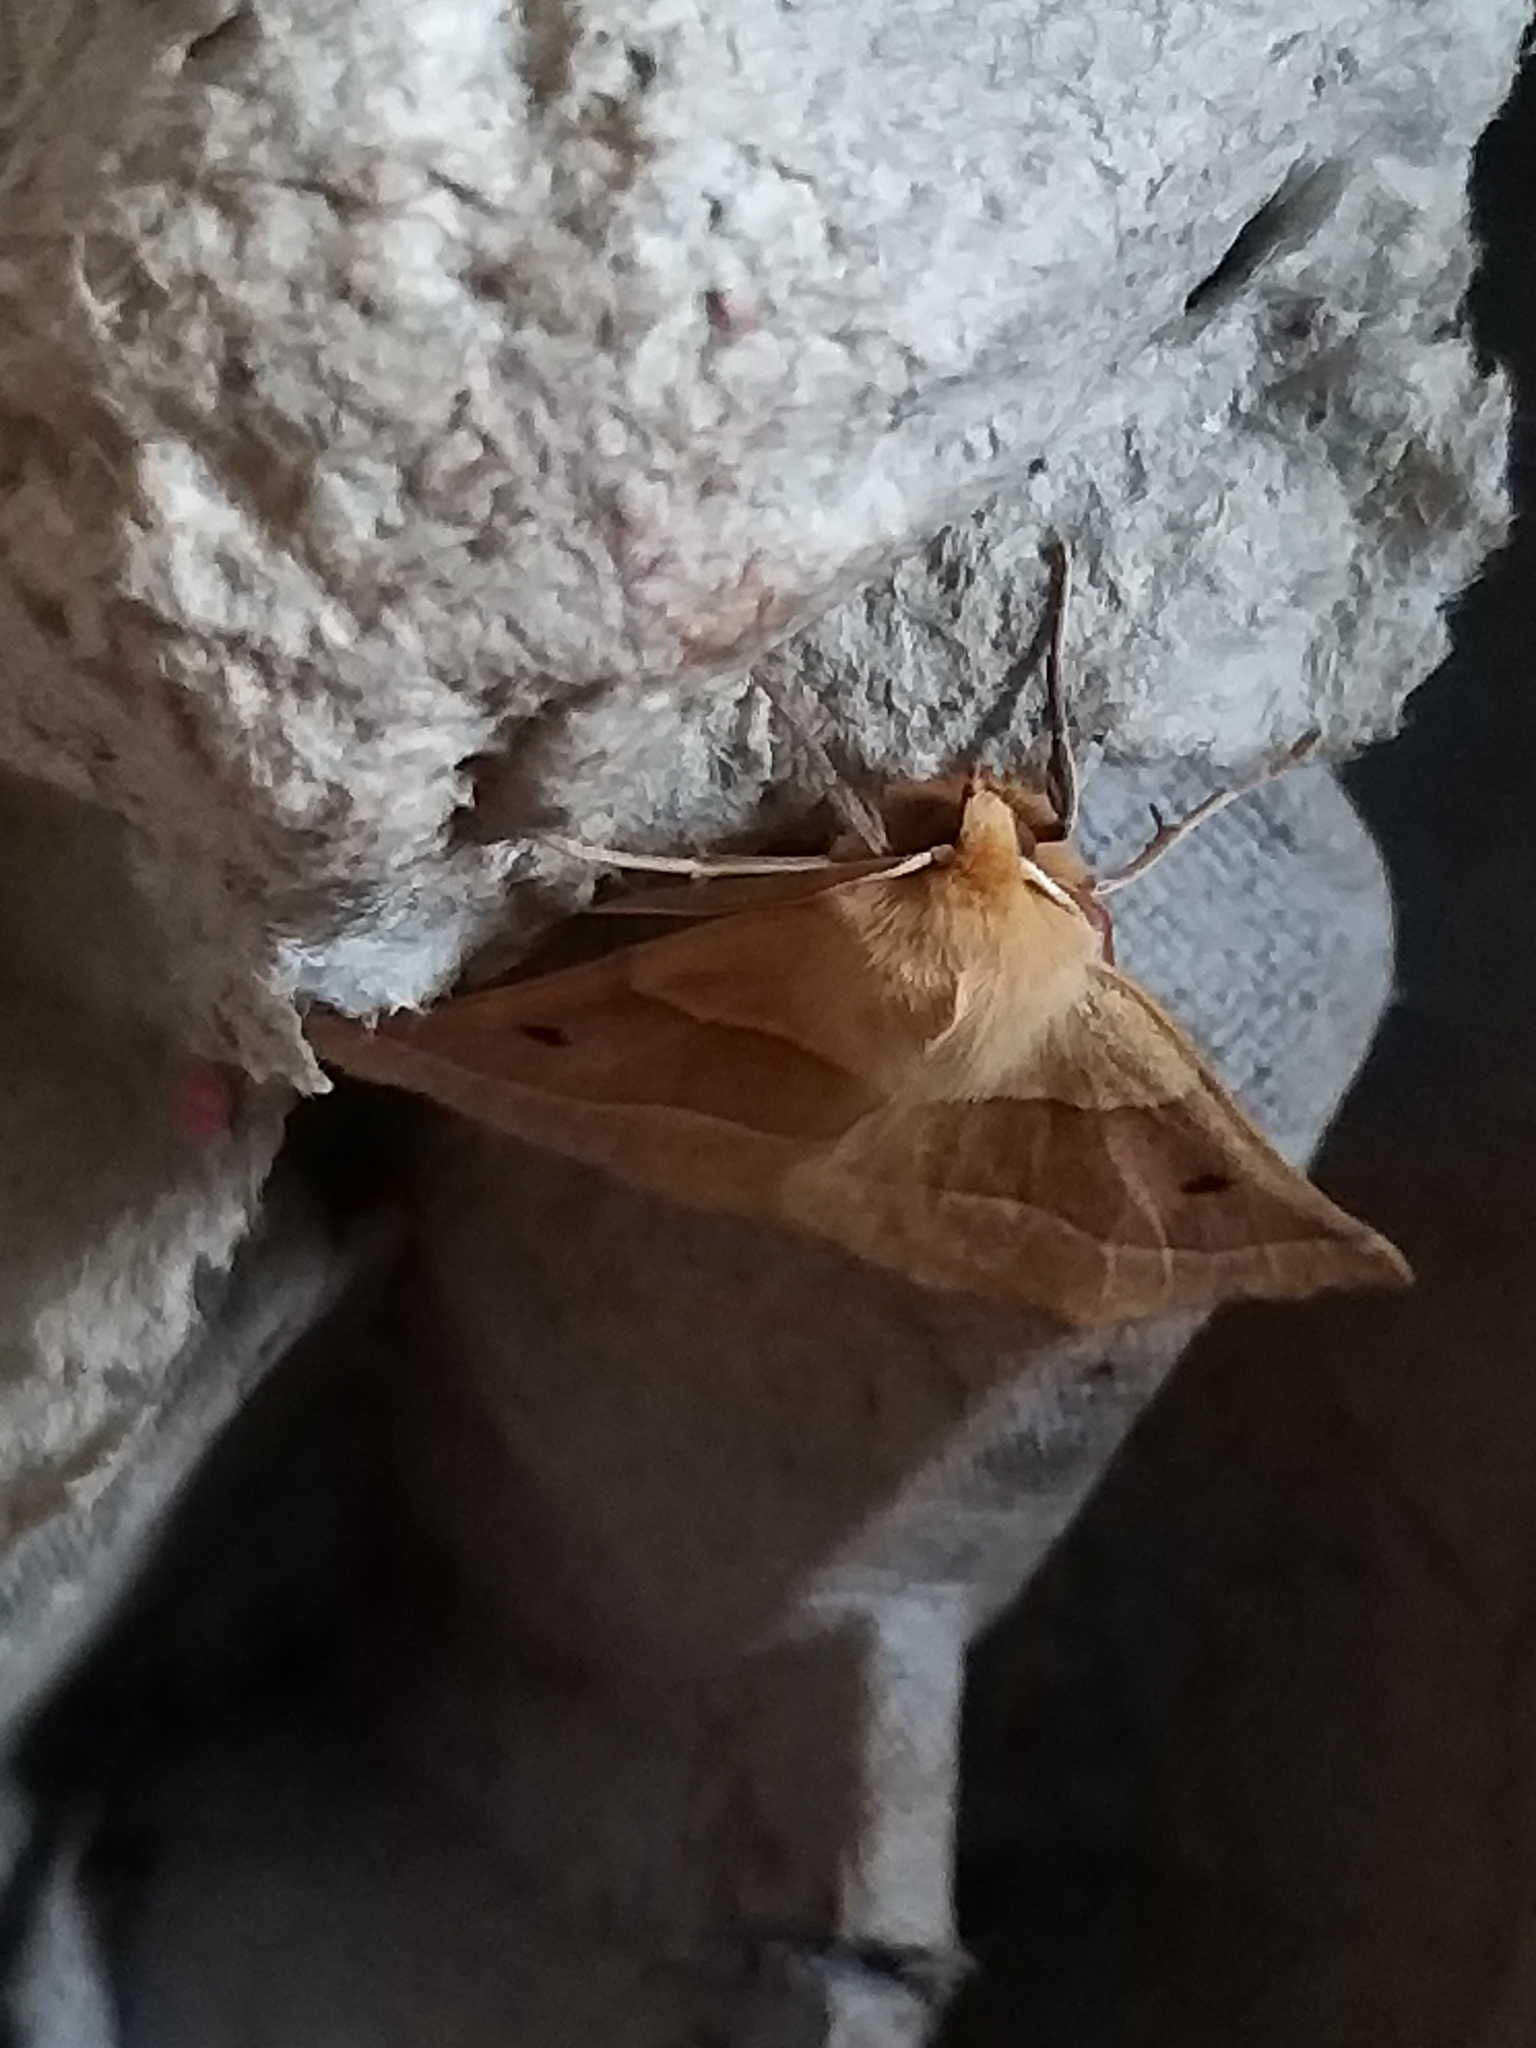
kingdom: Animalia
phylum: Arthropoda
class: Insecta
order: Lepidoptera
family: Geometridae
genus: Crocallis
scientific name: Crocallis elinguaria
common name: Scalloped oak
